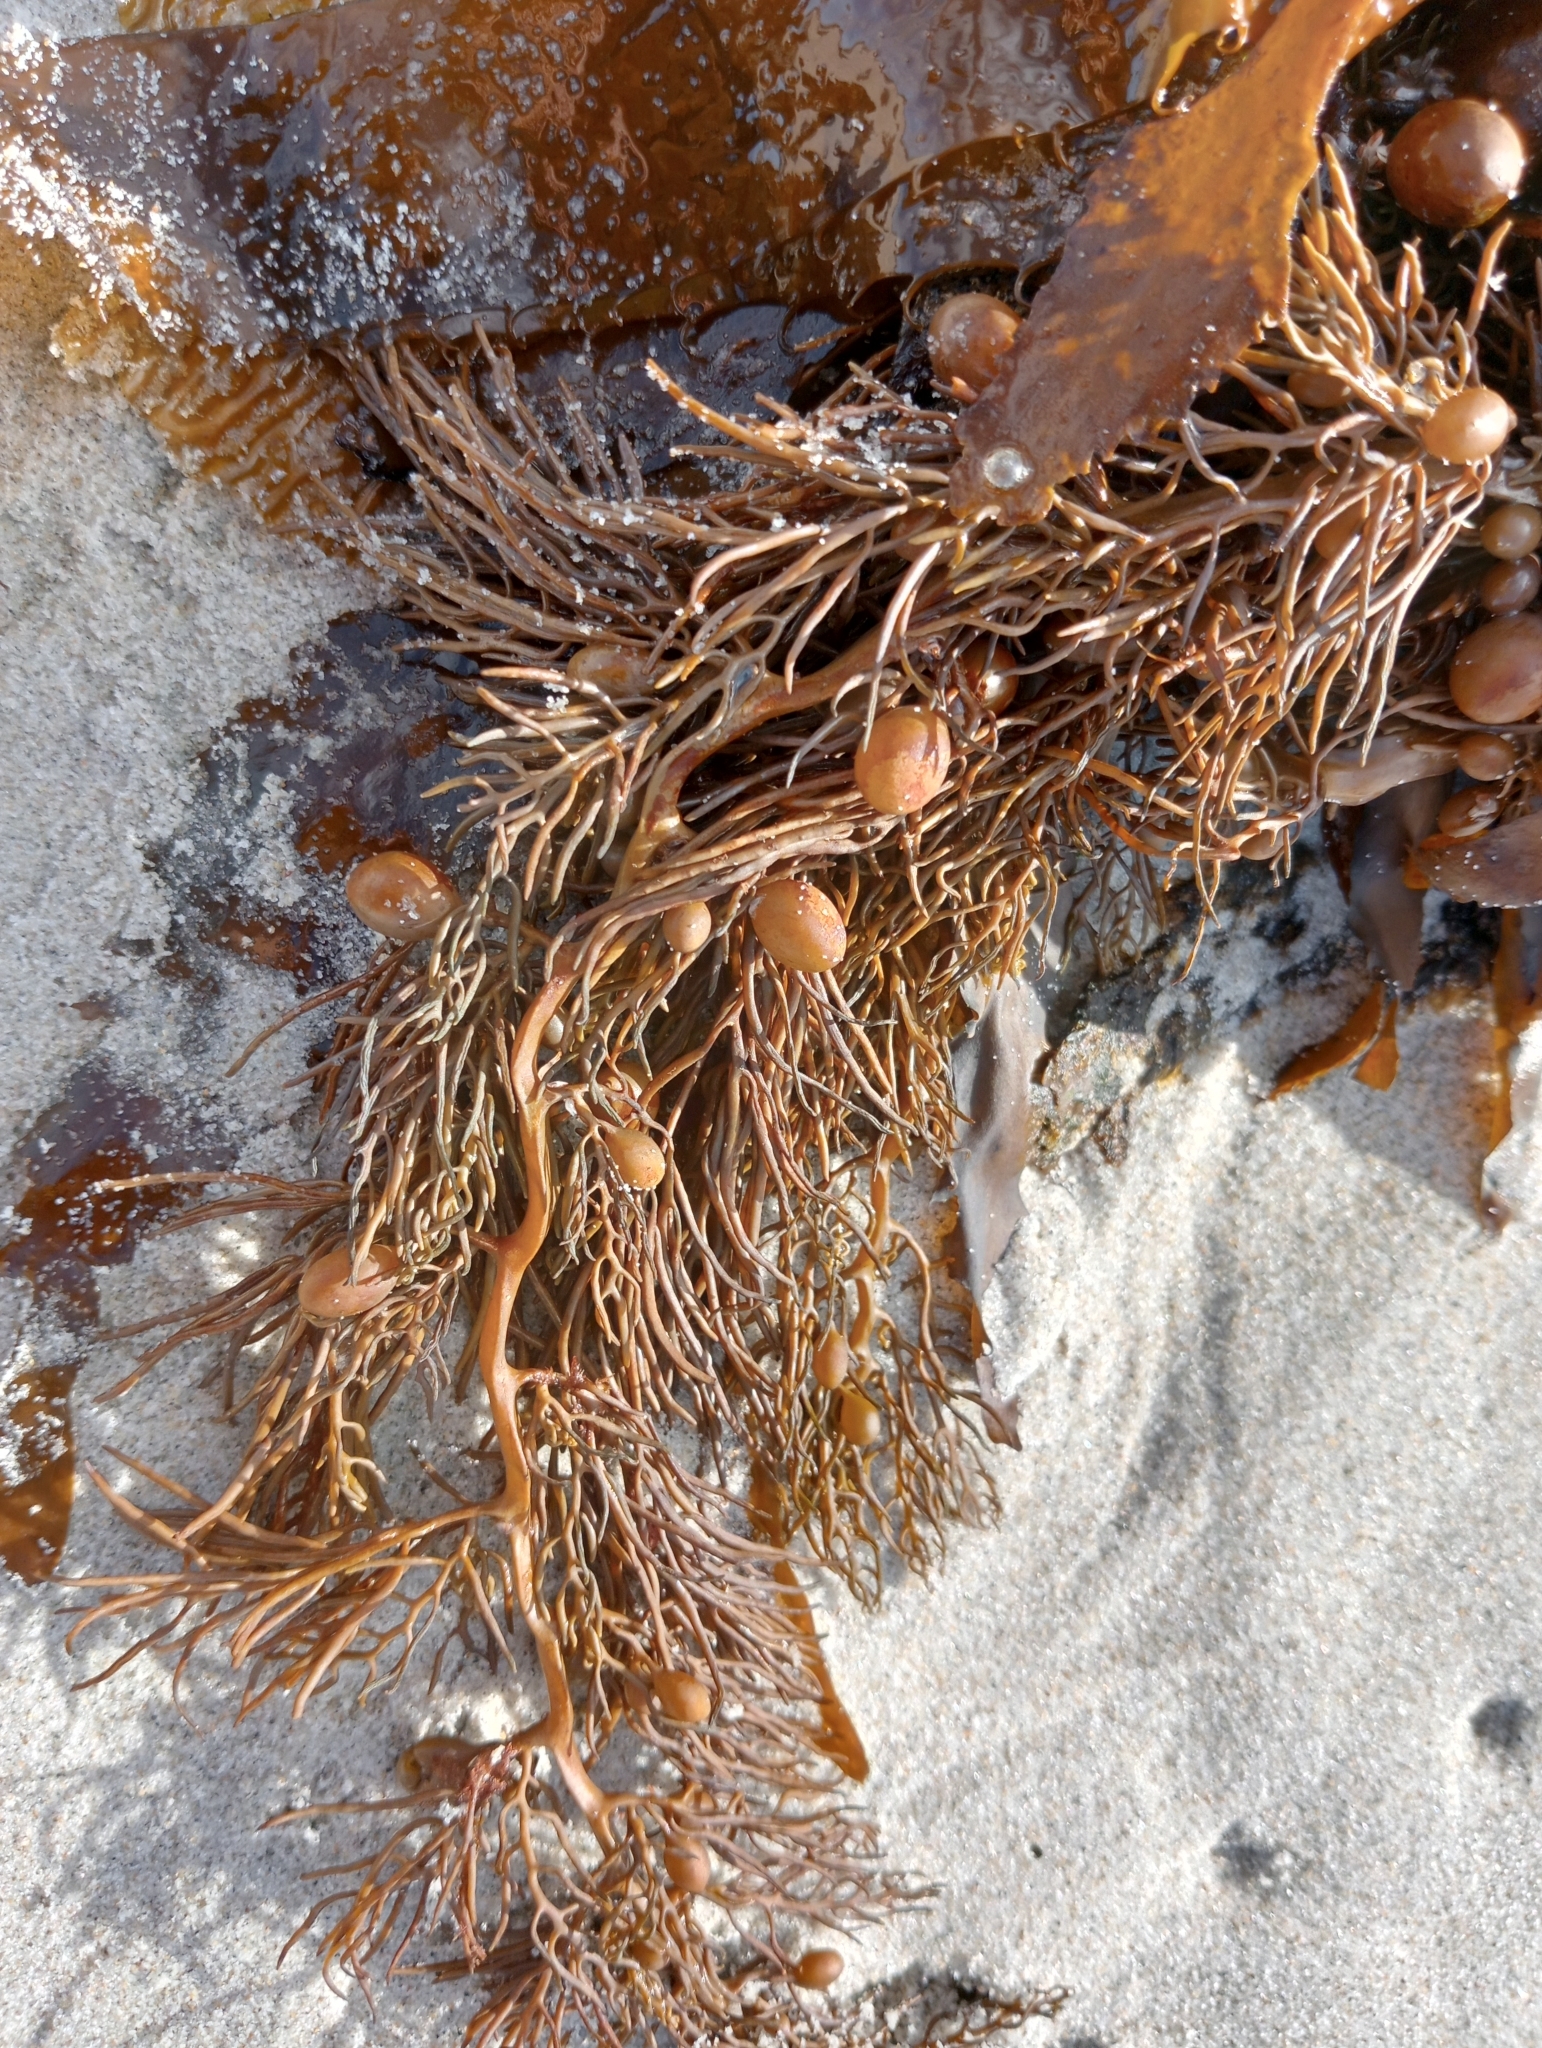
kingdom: Chromista
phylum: Ochrophyta
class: Phaeophyceae
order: Fucales
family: Sargassaceae
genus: Cystophora
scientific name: Cystophora retroflexa
